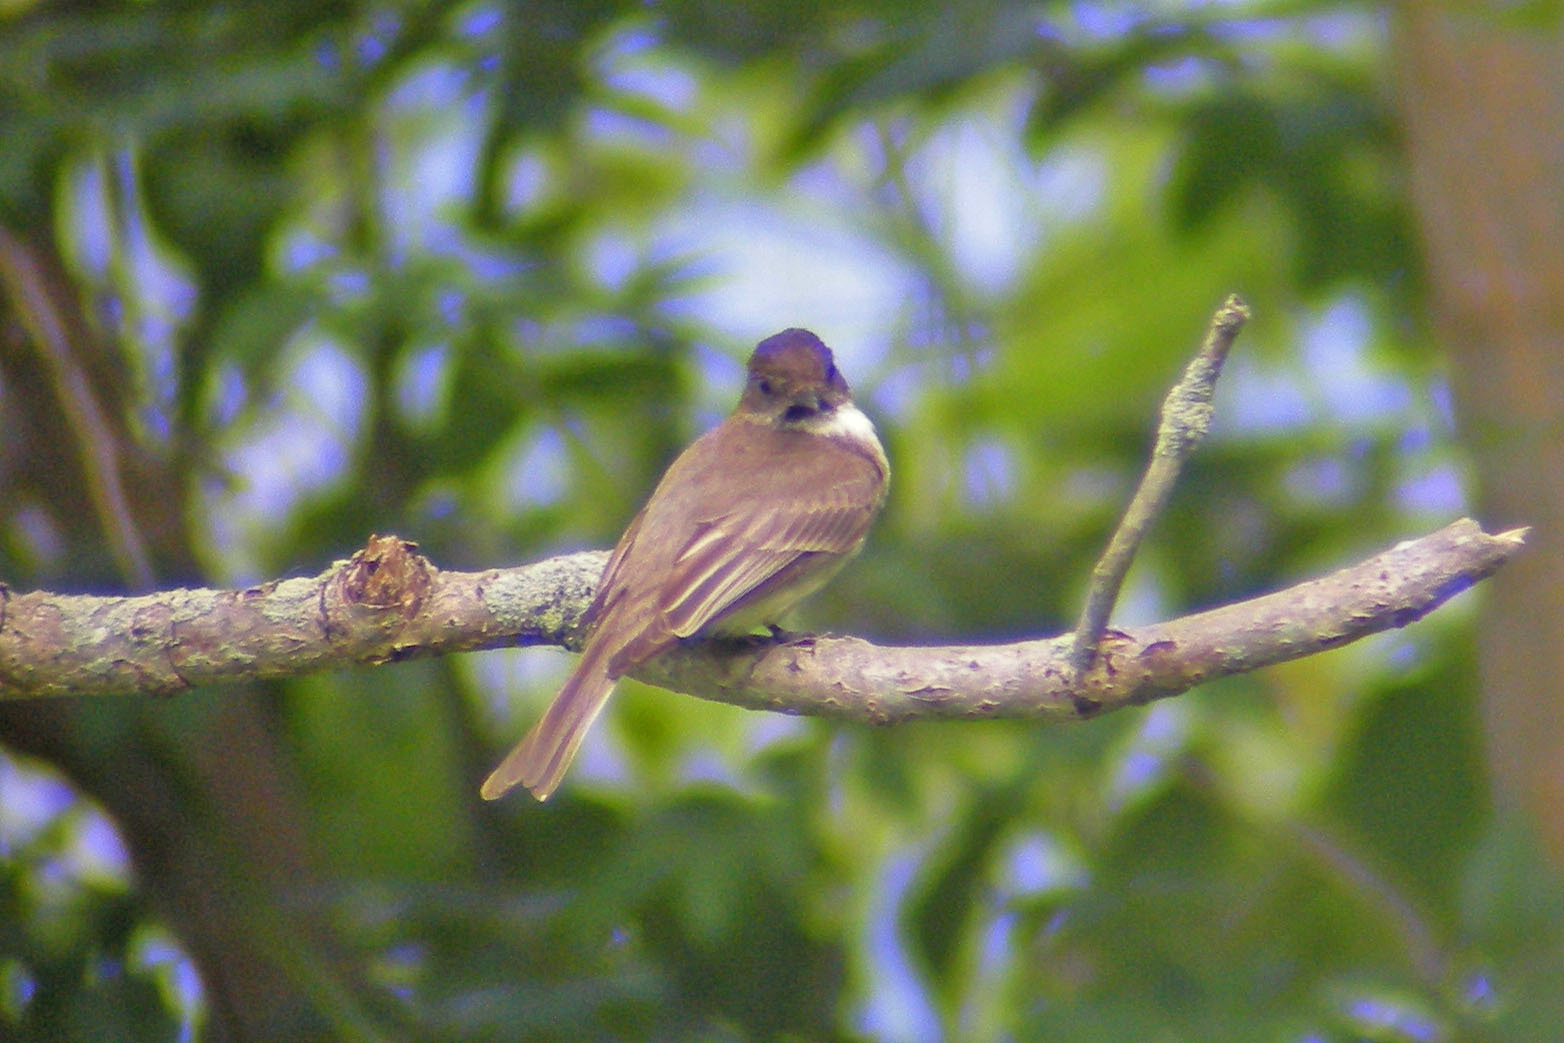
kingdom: Animalia
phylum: Chordata
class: Aves
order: Passeriformes
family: Tyrannidae
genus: Sayornis
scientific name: Sayornis phoebe
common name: Eastern phoebe
